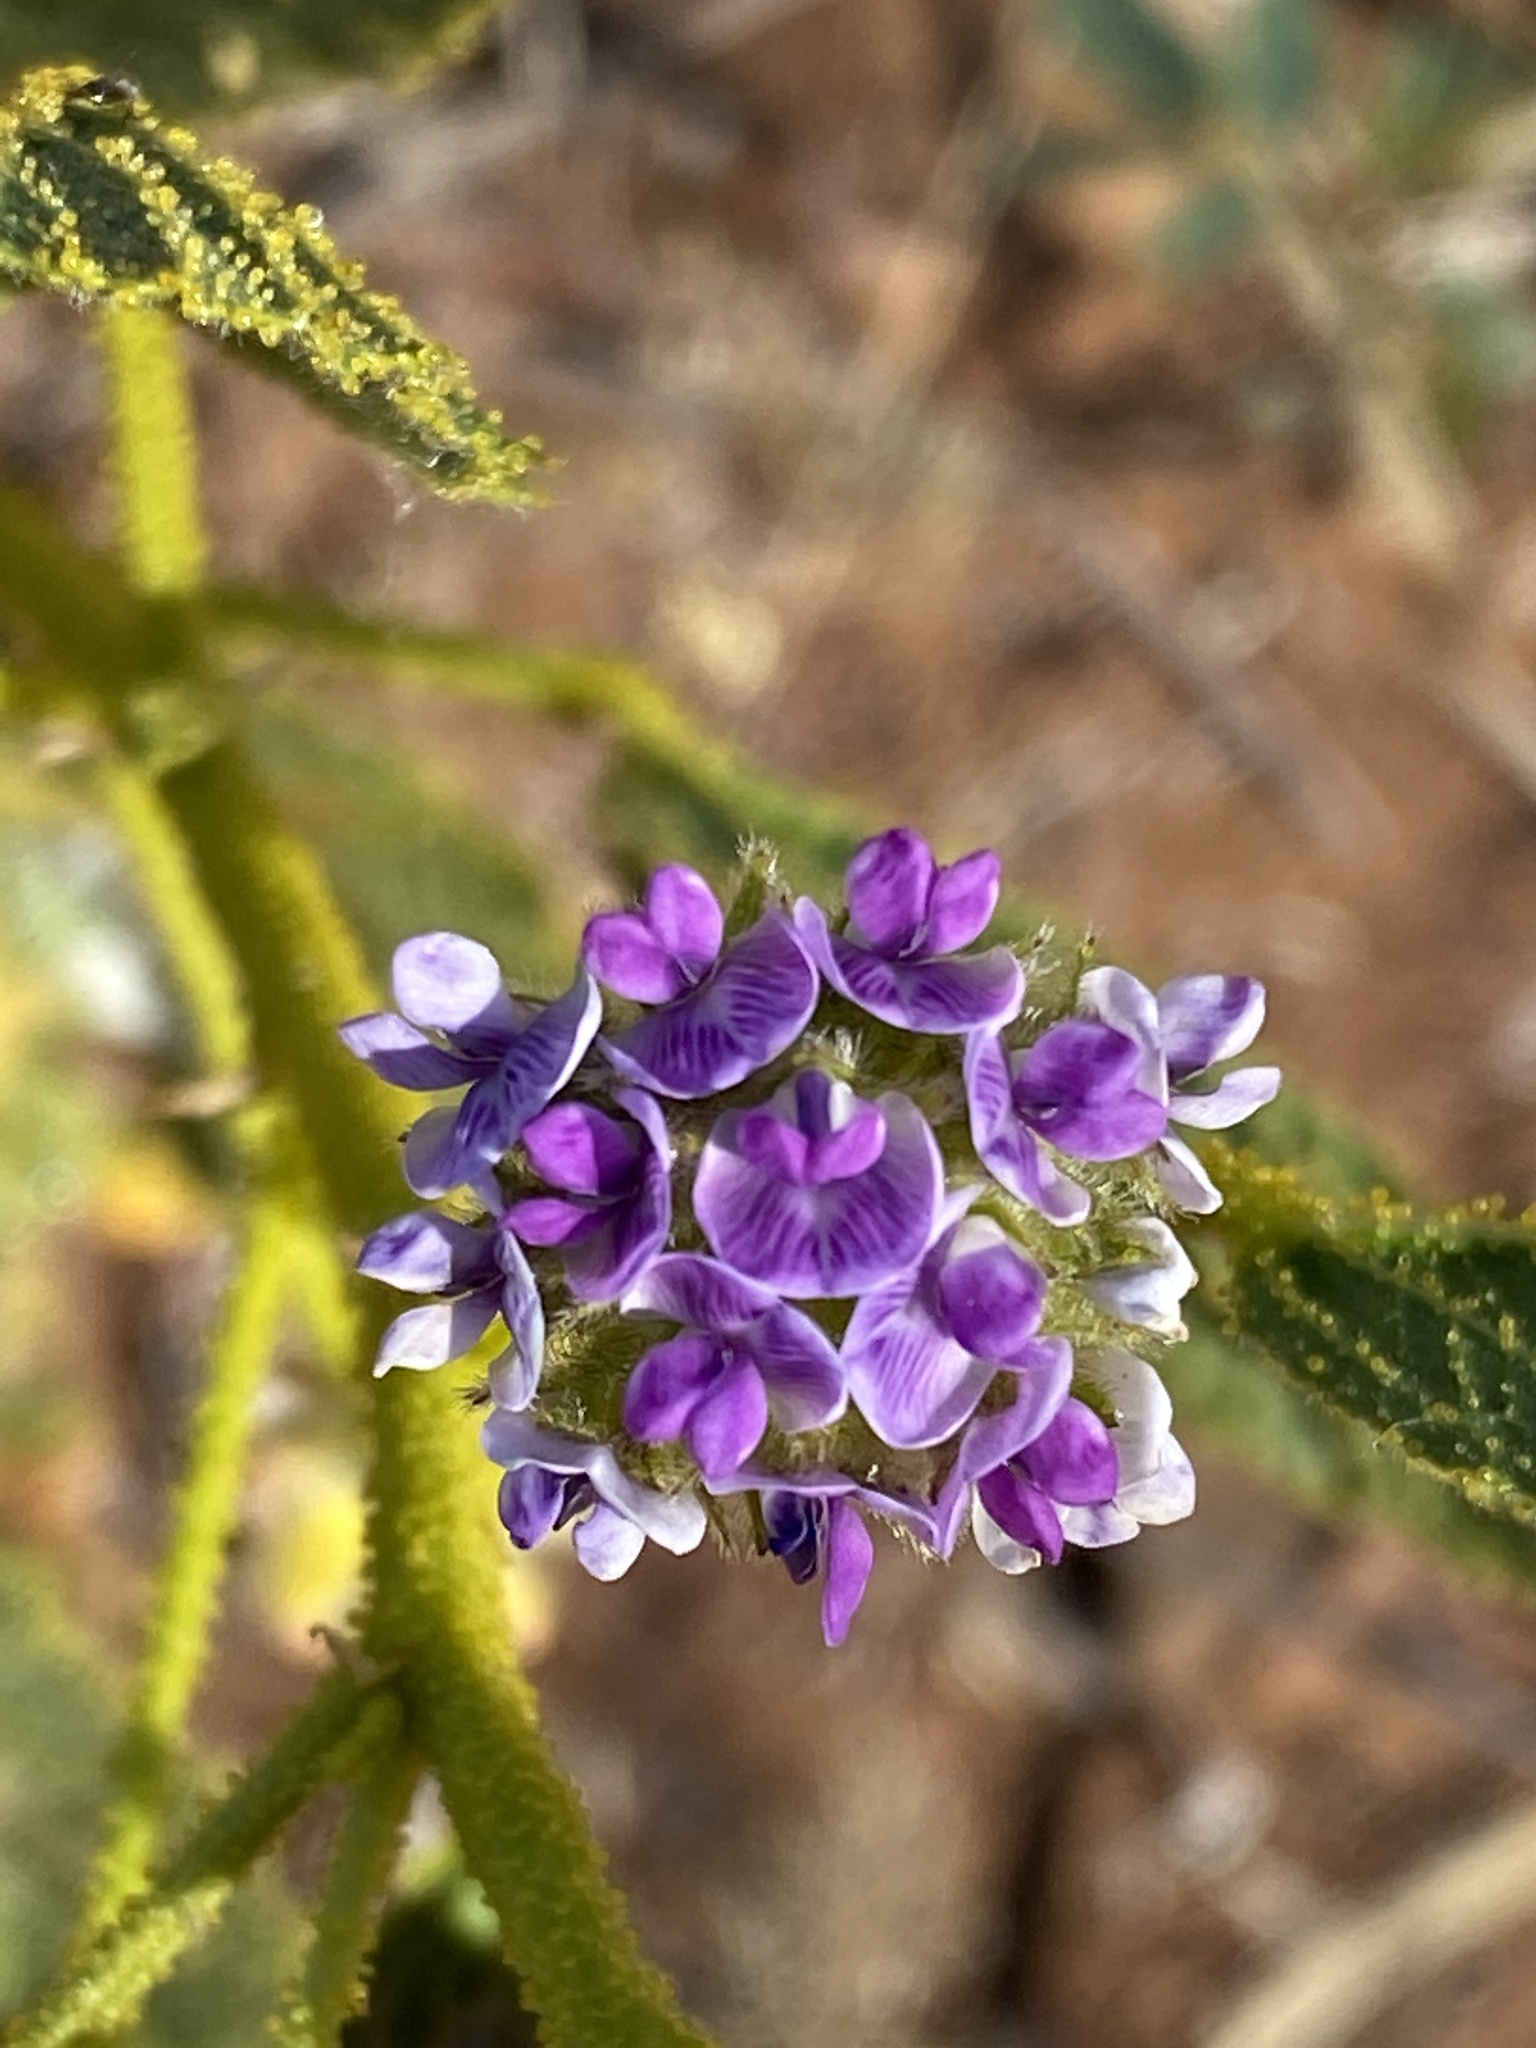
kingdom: Plantae
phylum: Tracheophyta
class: Magnoliopsida
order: Fabales
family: Fabaceae
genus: Cullen
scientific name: Cullen balsamicum
